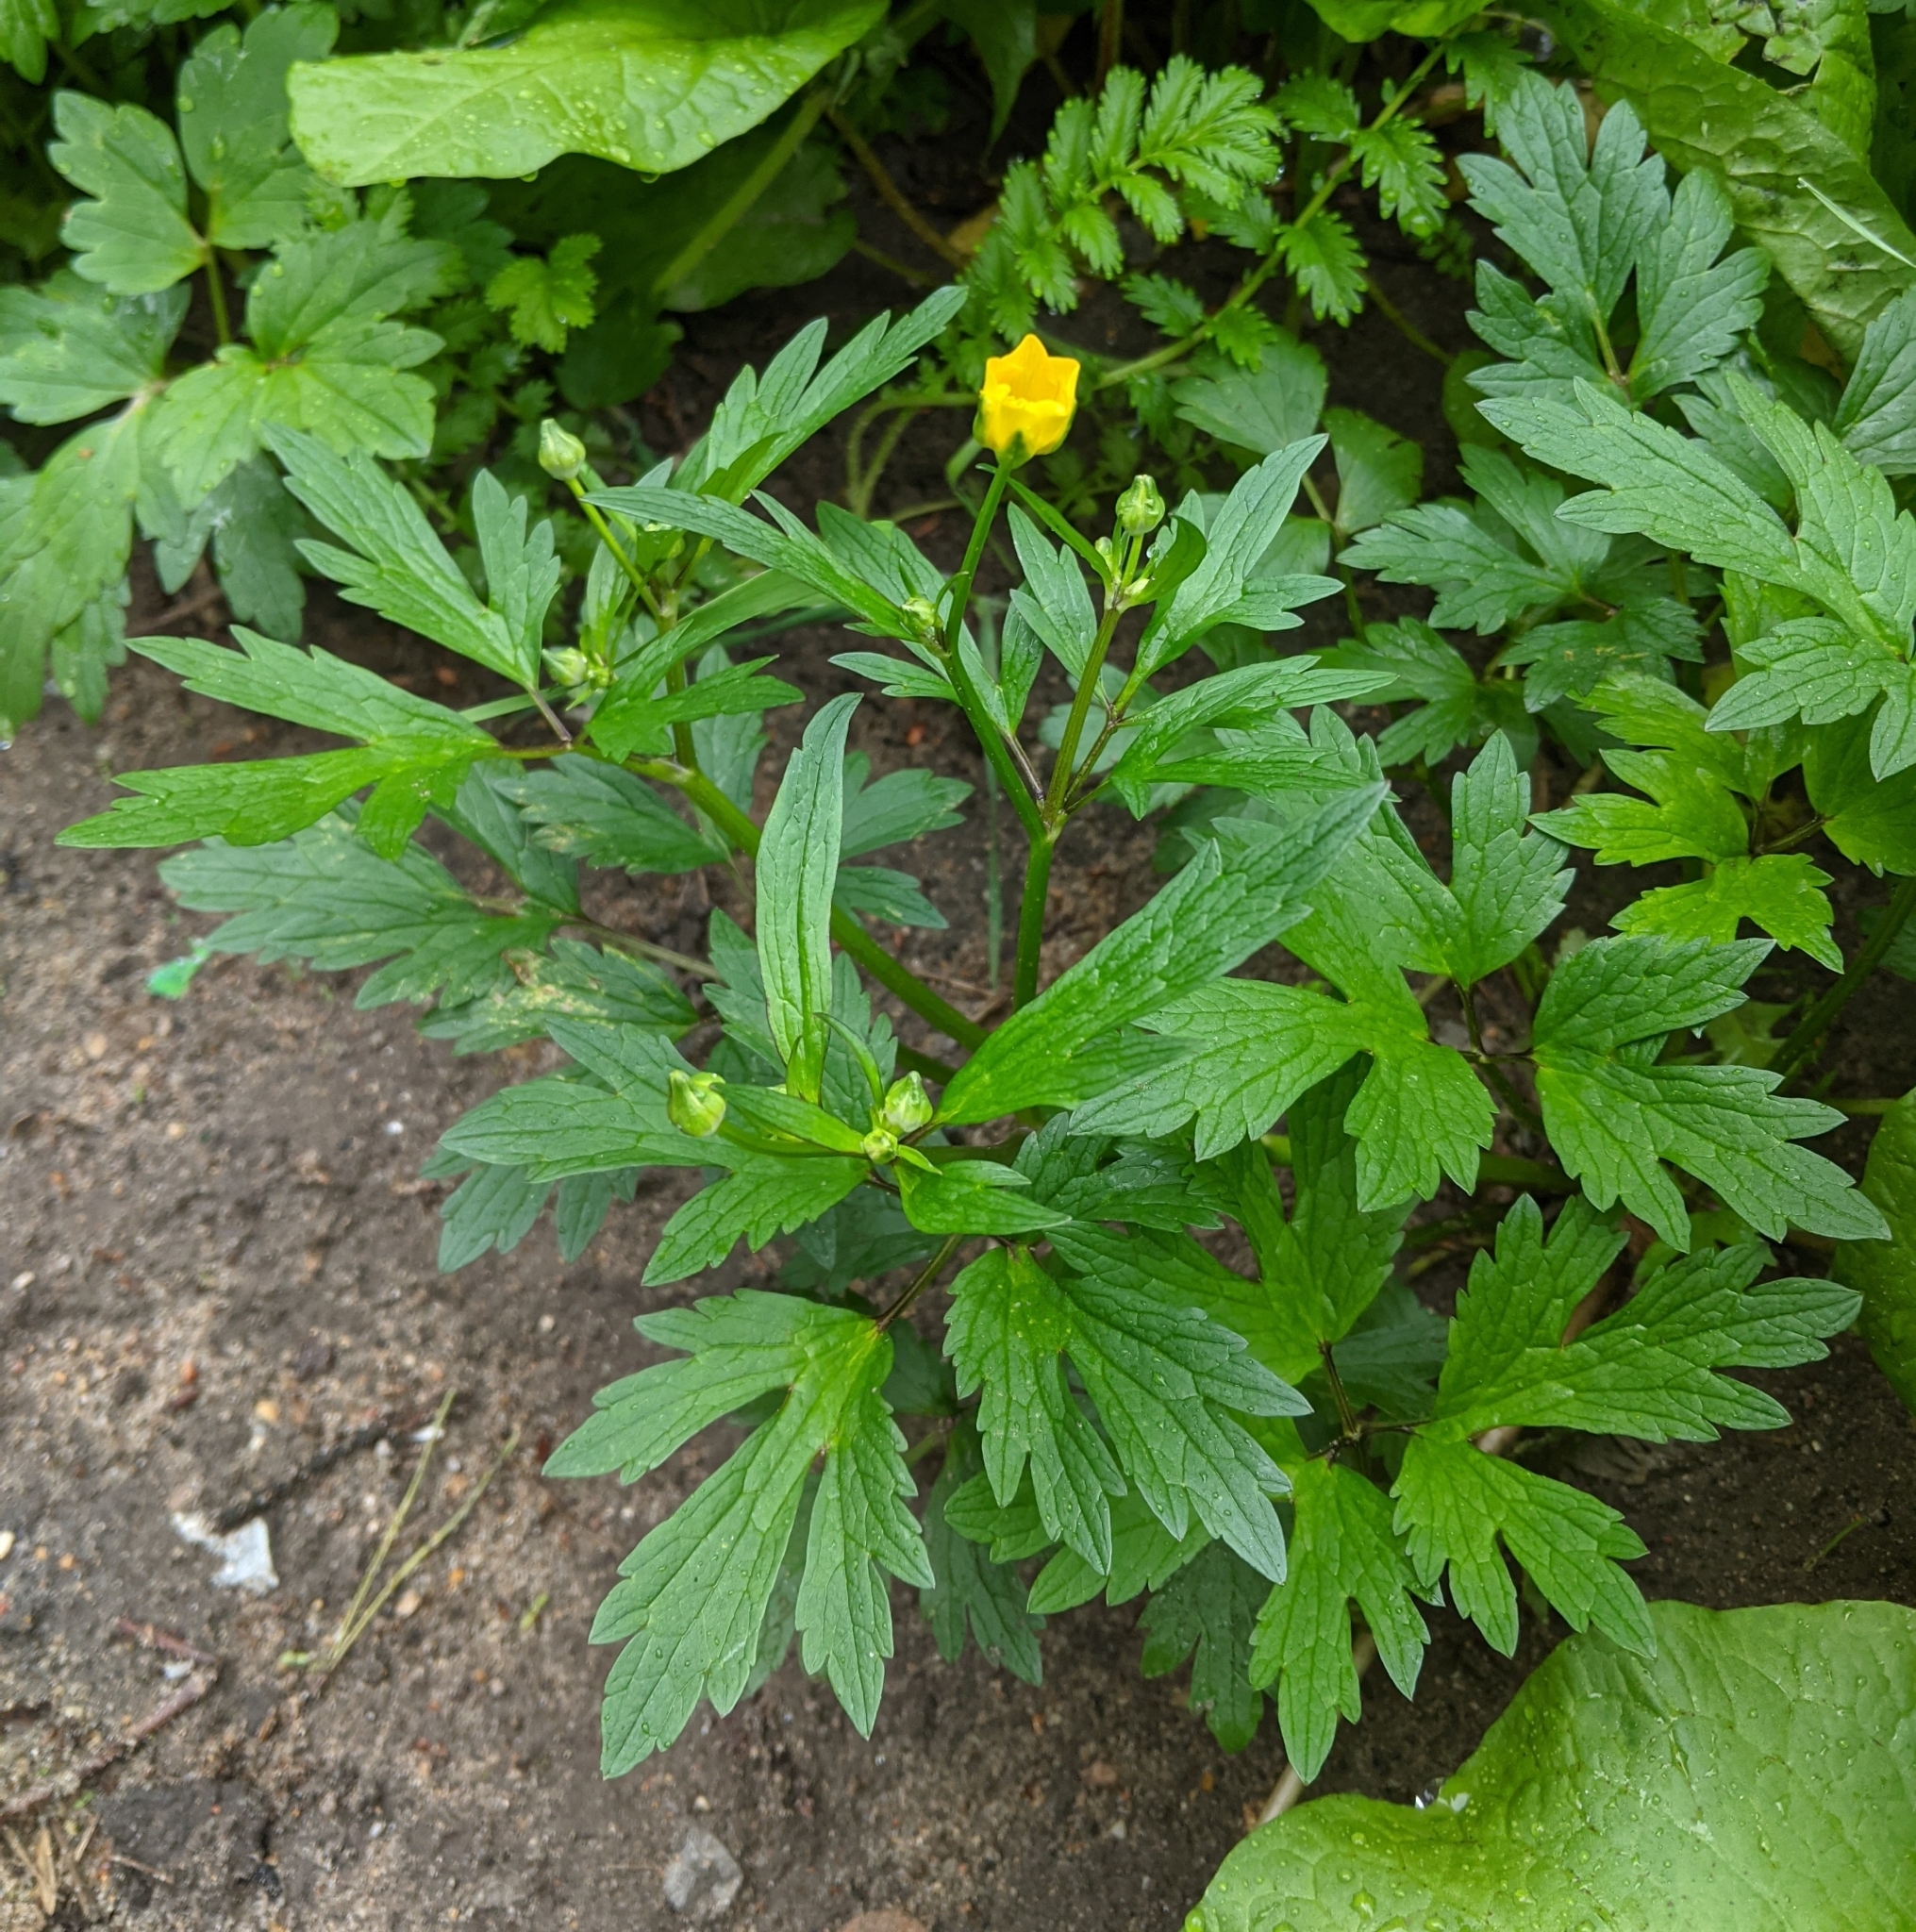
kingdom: Plantae
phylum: Tracheophyta
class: Magnoliopsida
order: Ranunculales
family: Ranunculaceae
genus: Ranunculus
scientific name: Ranunculus repens
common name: Creeping buttercup
